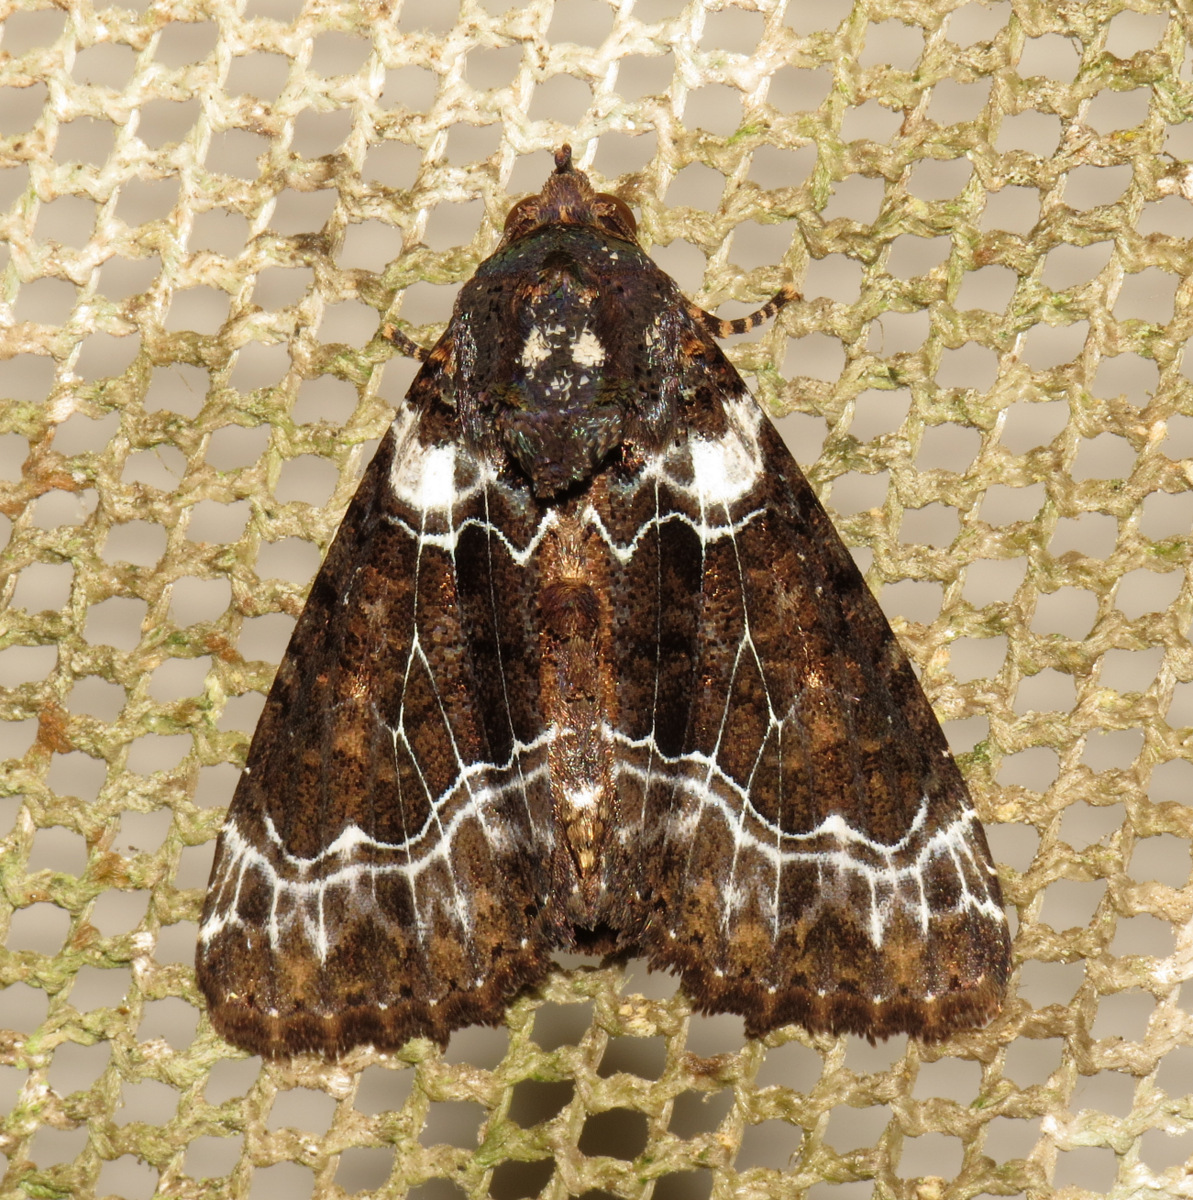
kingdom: Animalia
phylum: Arthropoda
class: Insecta
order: Lepidoptera
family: Noctuidae
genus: Cropia
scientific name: Cropia phila
